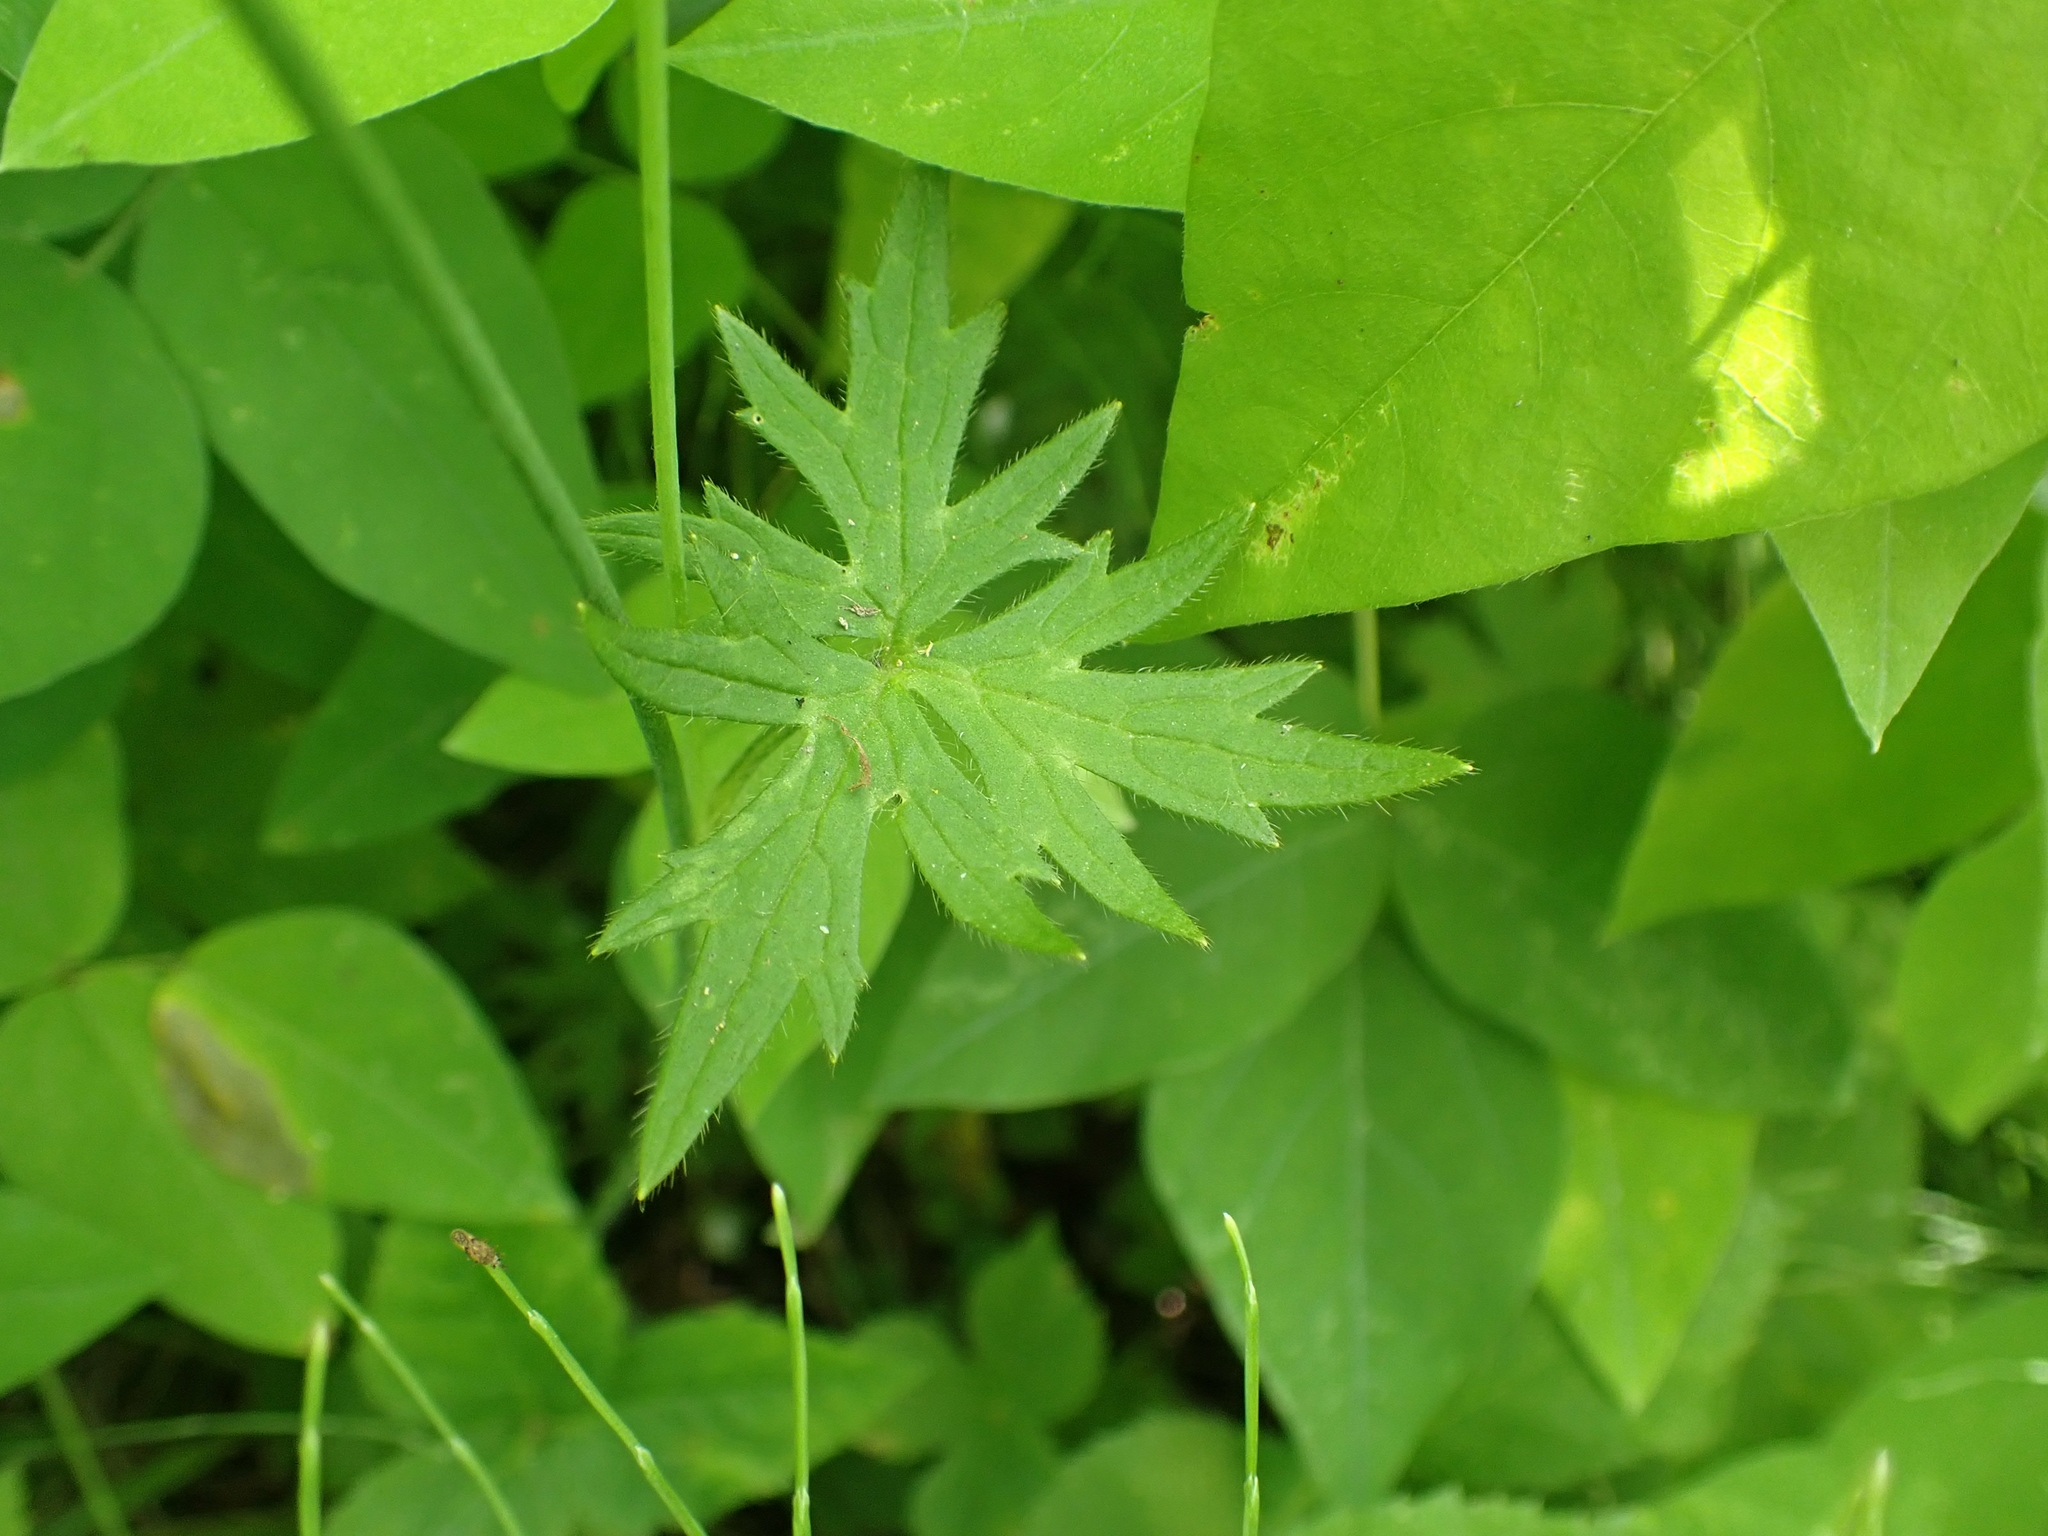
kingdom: Plantae
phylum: Tracheophyta
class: Magnoliopsida
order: Ranunculales
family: Ranunculaceae
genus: Ranunculus
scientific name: Ranunculus acris
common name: Meadow buttercup
